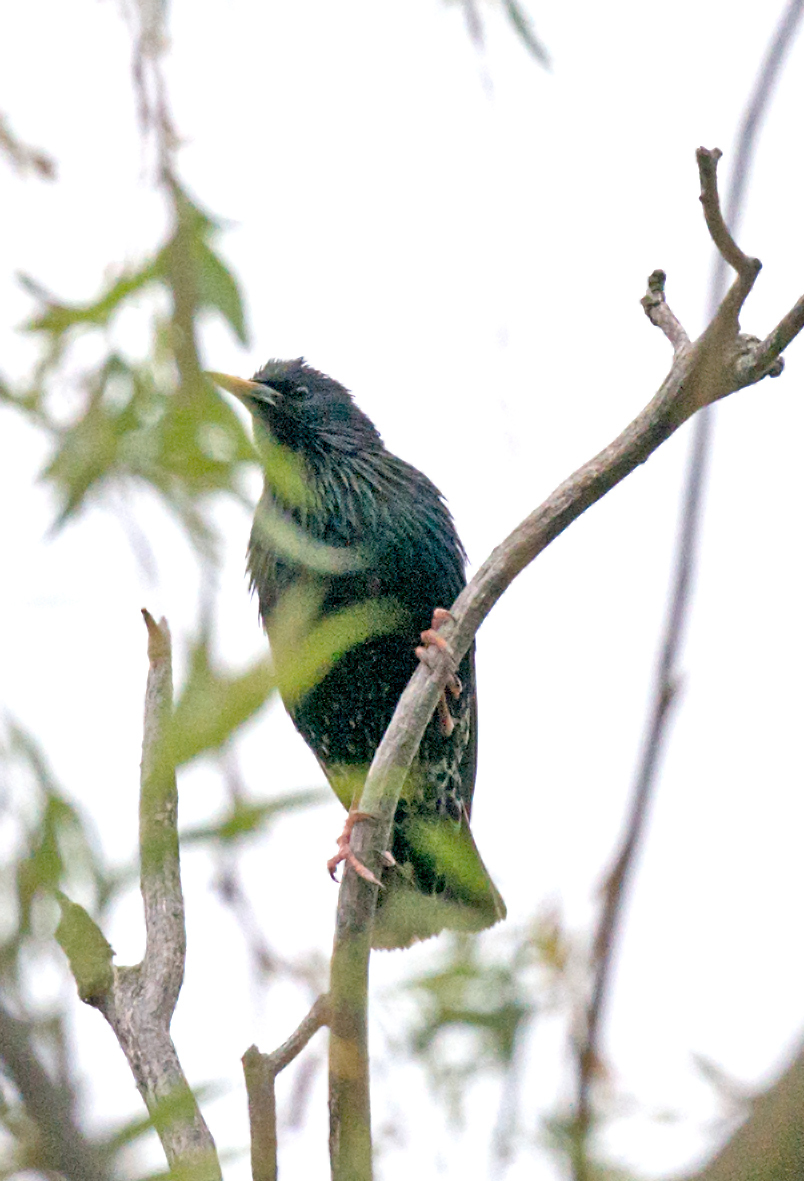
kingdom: Animalia
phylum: Chordata
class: Aves
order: Passeriformes
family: Sturnidae
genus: Sturnus
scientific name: Sturnus vulgaris
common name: Common starling
